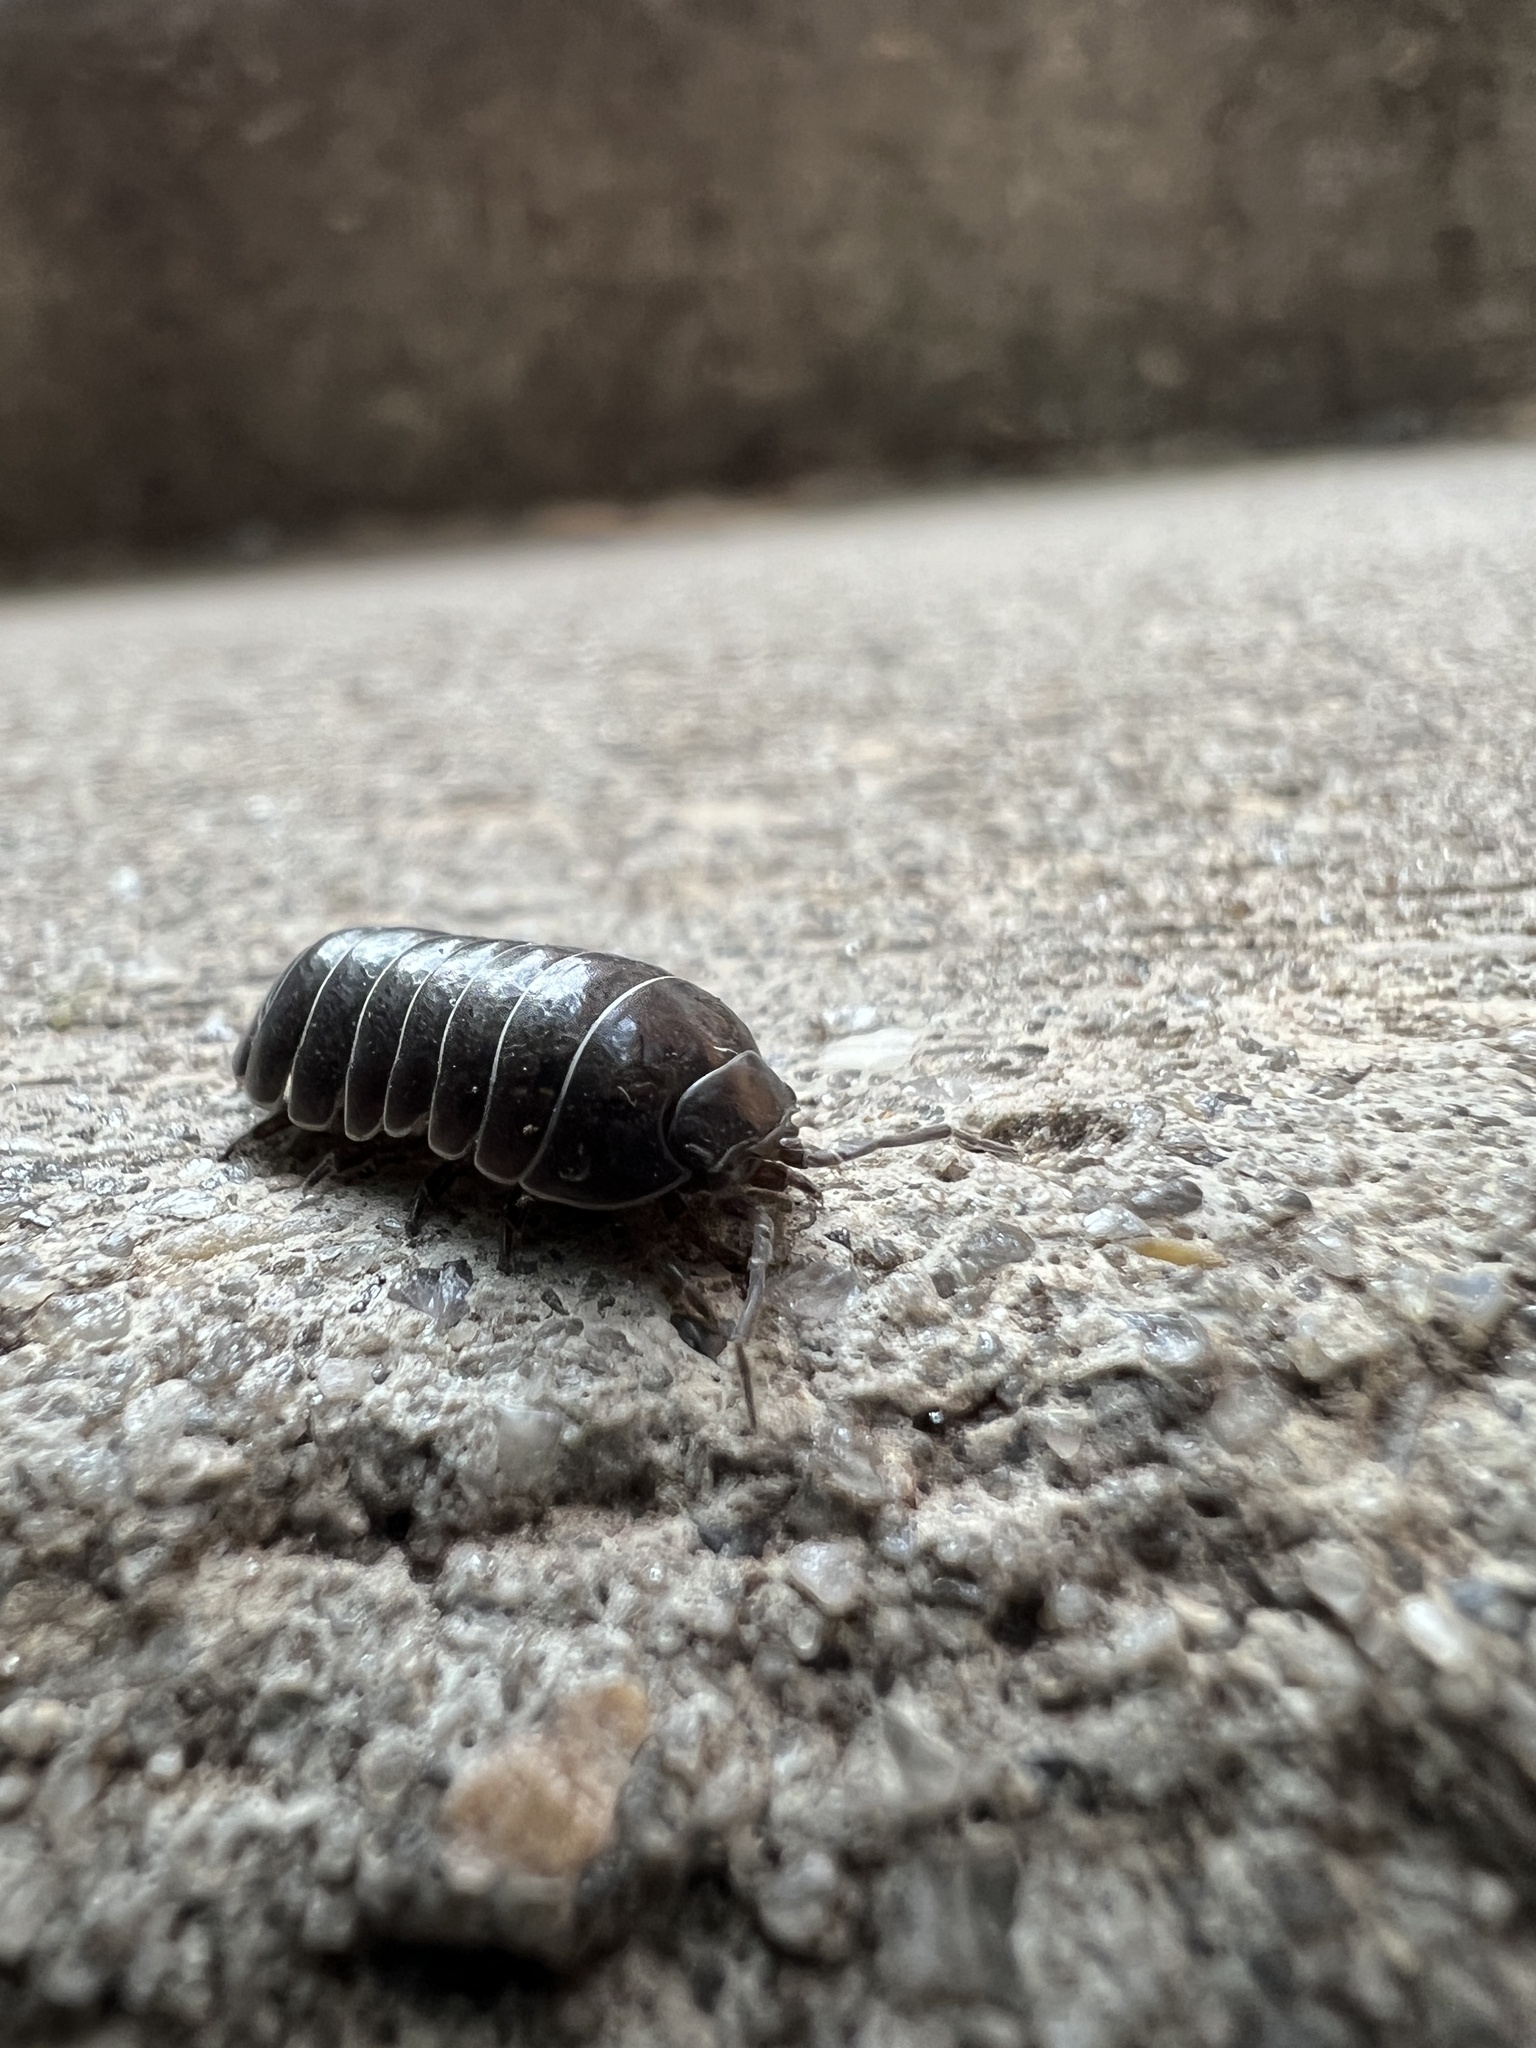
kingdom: Animalia
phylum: Arthropoda
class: Malacostraca
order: Isopoda
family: Armadillidiidae
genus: Armadillidium
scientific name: Armadillidium vulgare
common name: Common pill woodlouse
